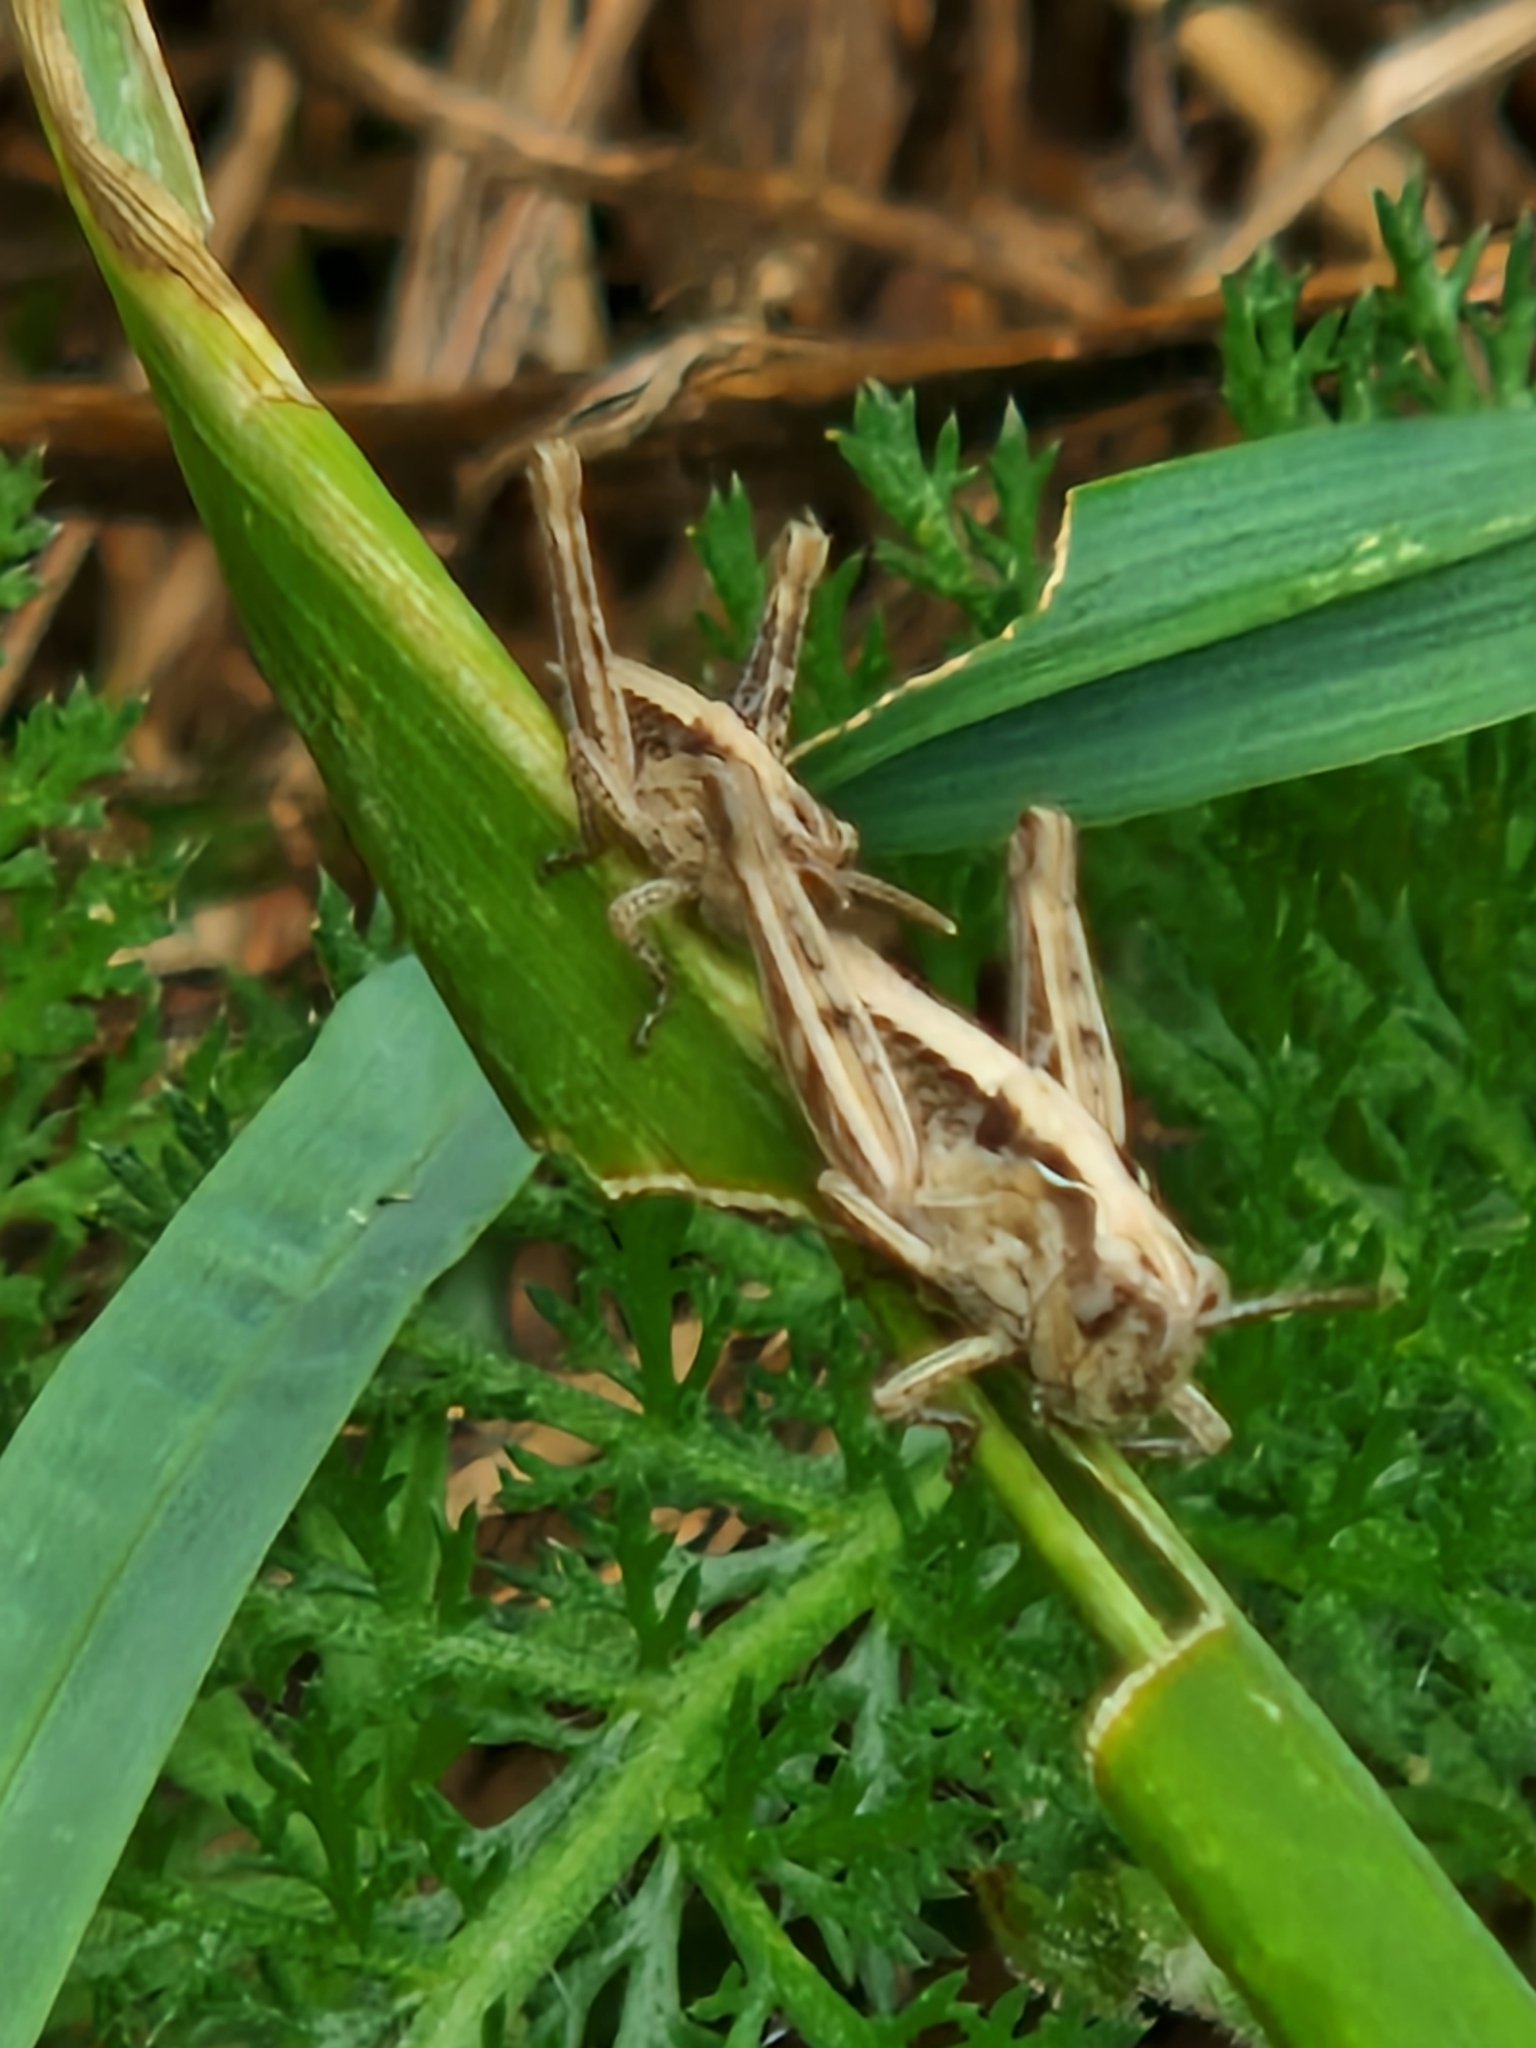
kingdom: Animalia
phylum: Arthropoda
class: Insecta
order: Orthoptera
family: Acrididae
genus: Chorthippus
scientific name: Chorthippus brunneus
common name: Field grasshopper
